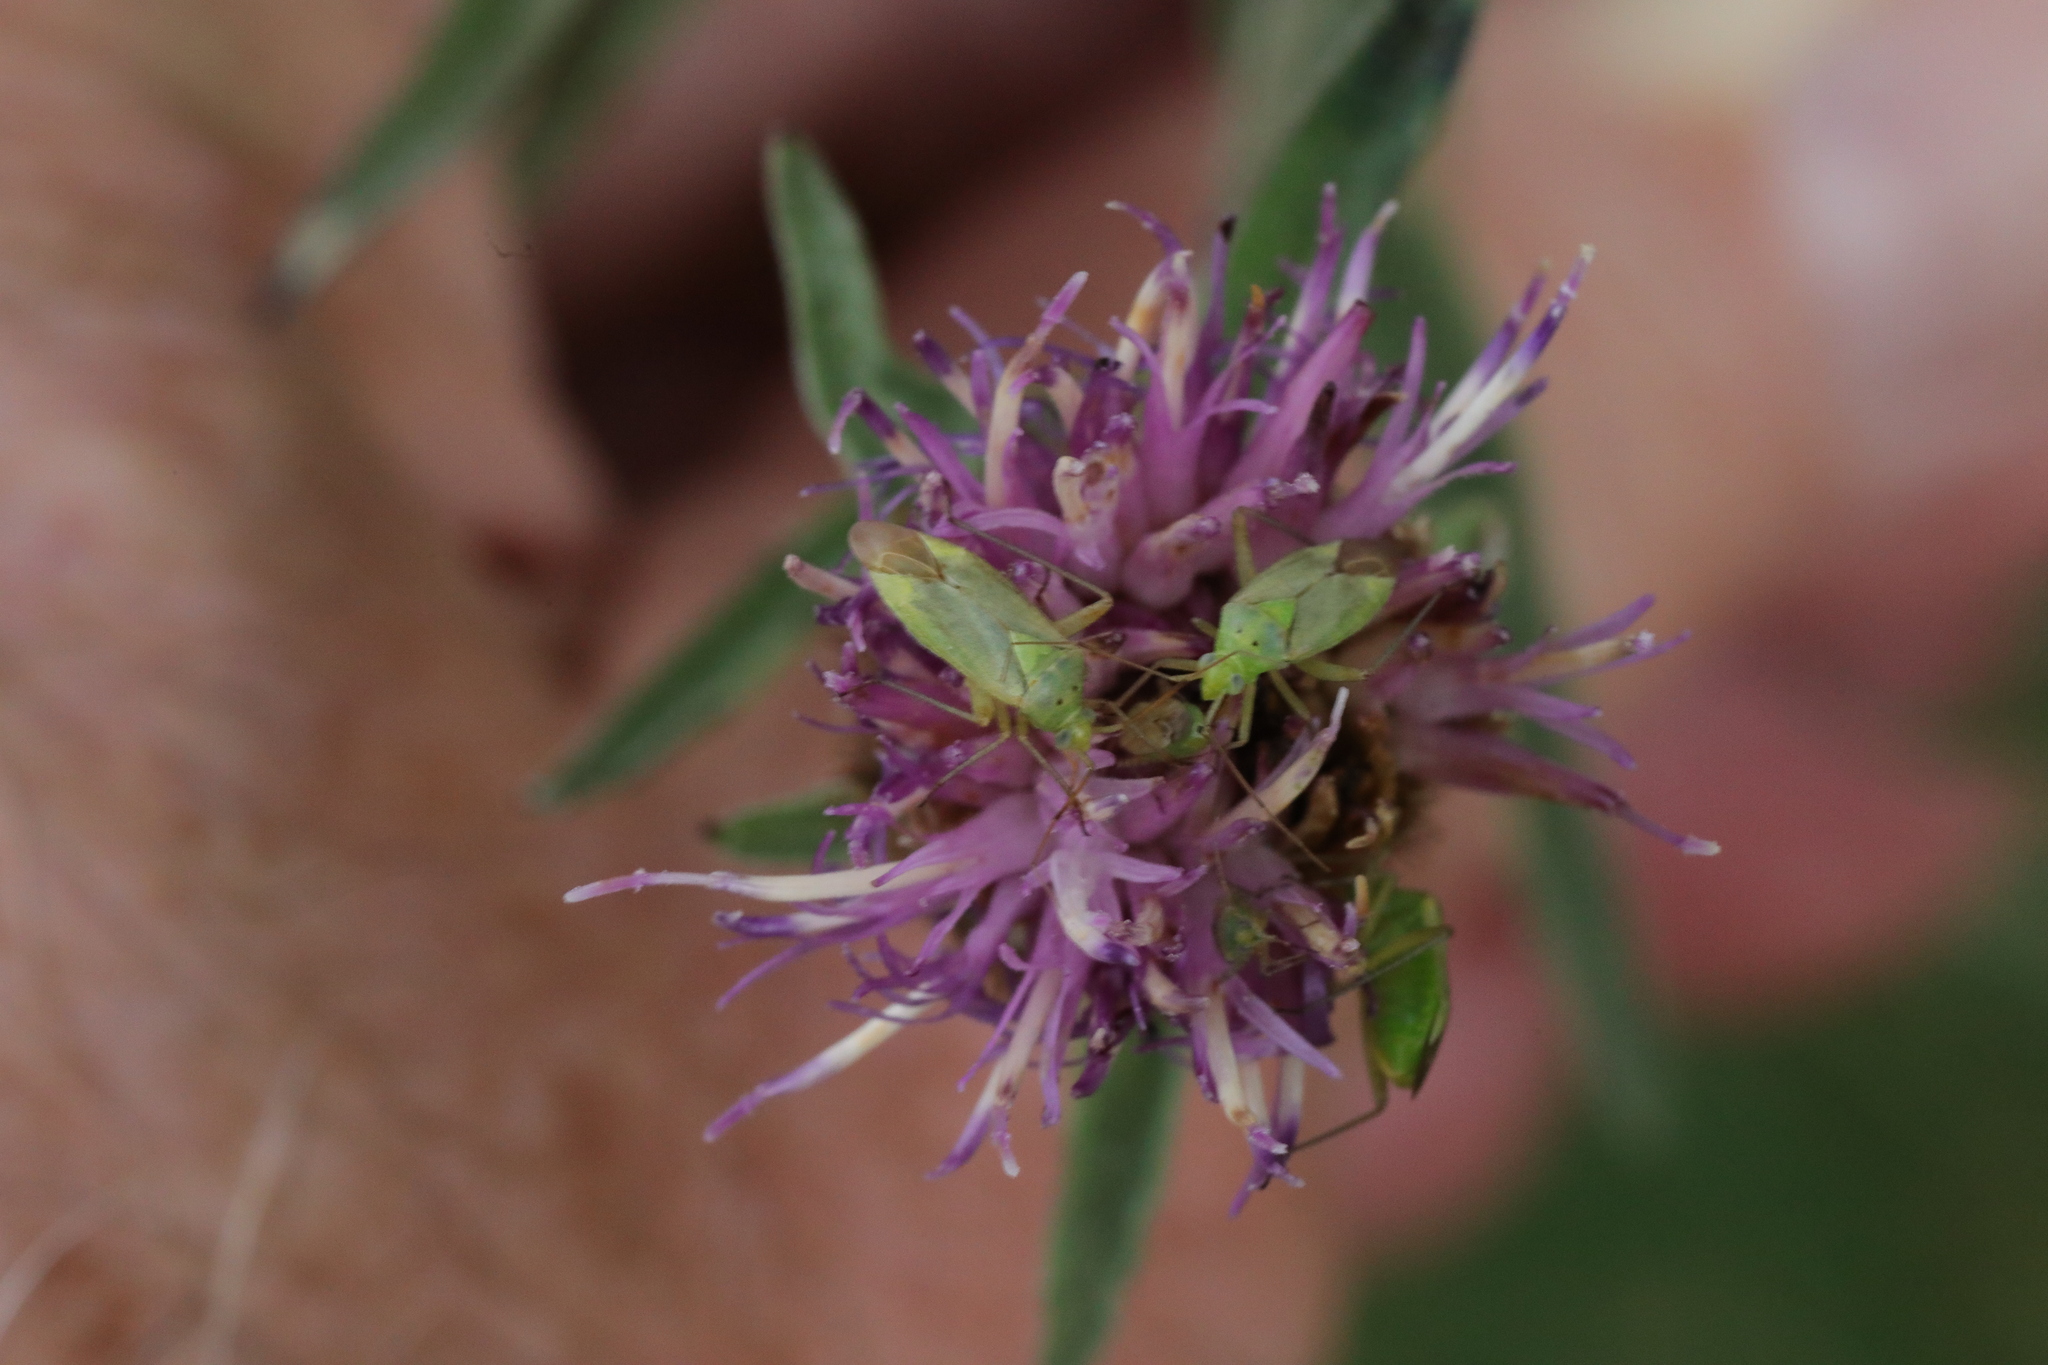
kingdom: Animalia
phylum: Arthropoda
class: Insecta
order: Hemiptera
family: Miridae
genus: Closterotomus
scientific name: Closterotomus norvegicus
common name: Plant bug
